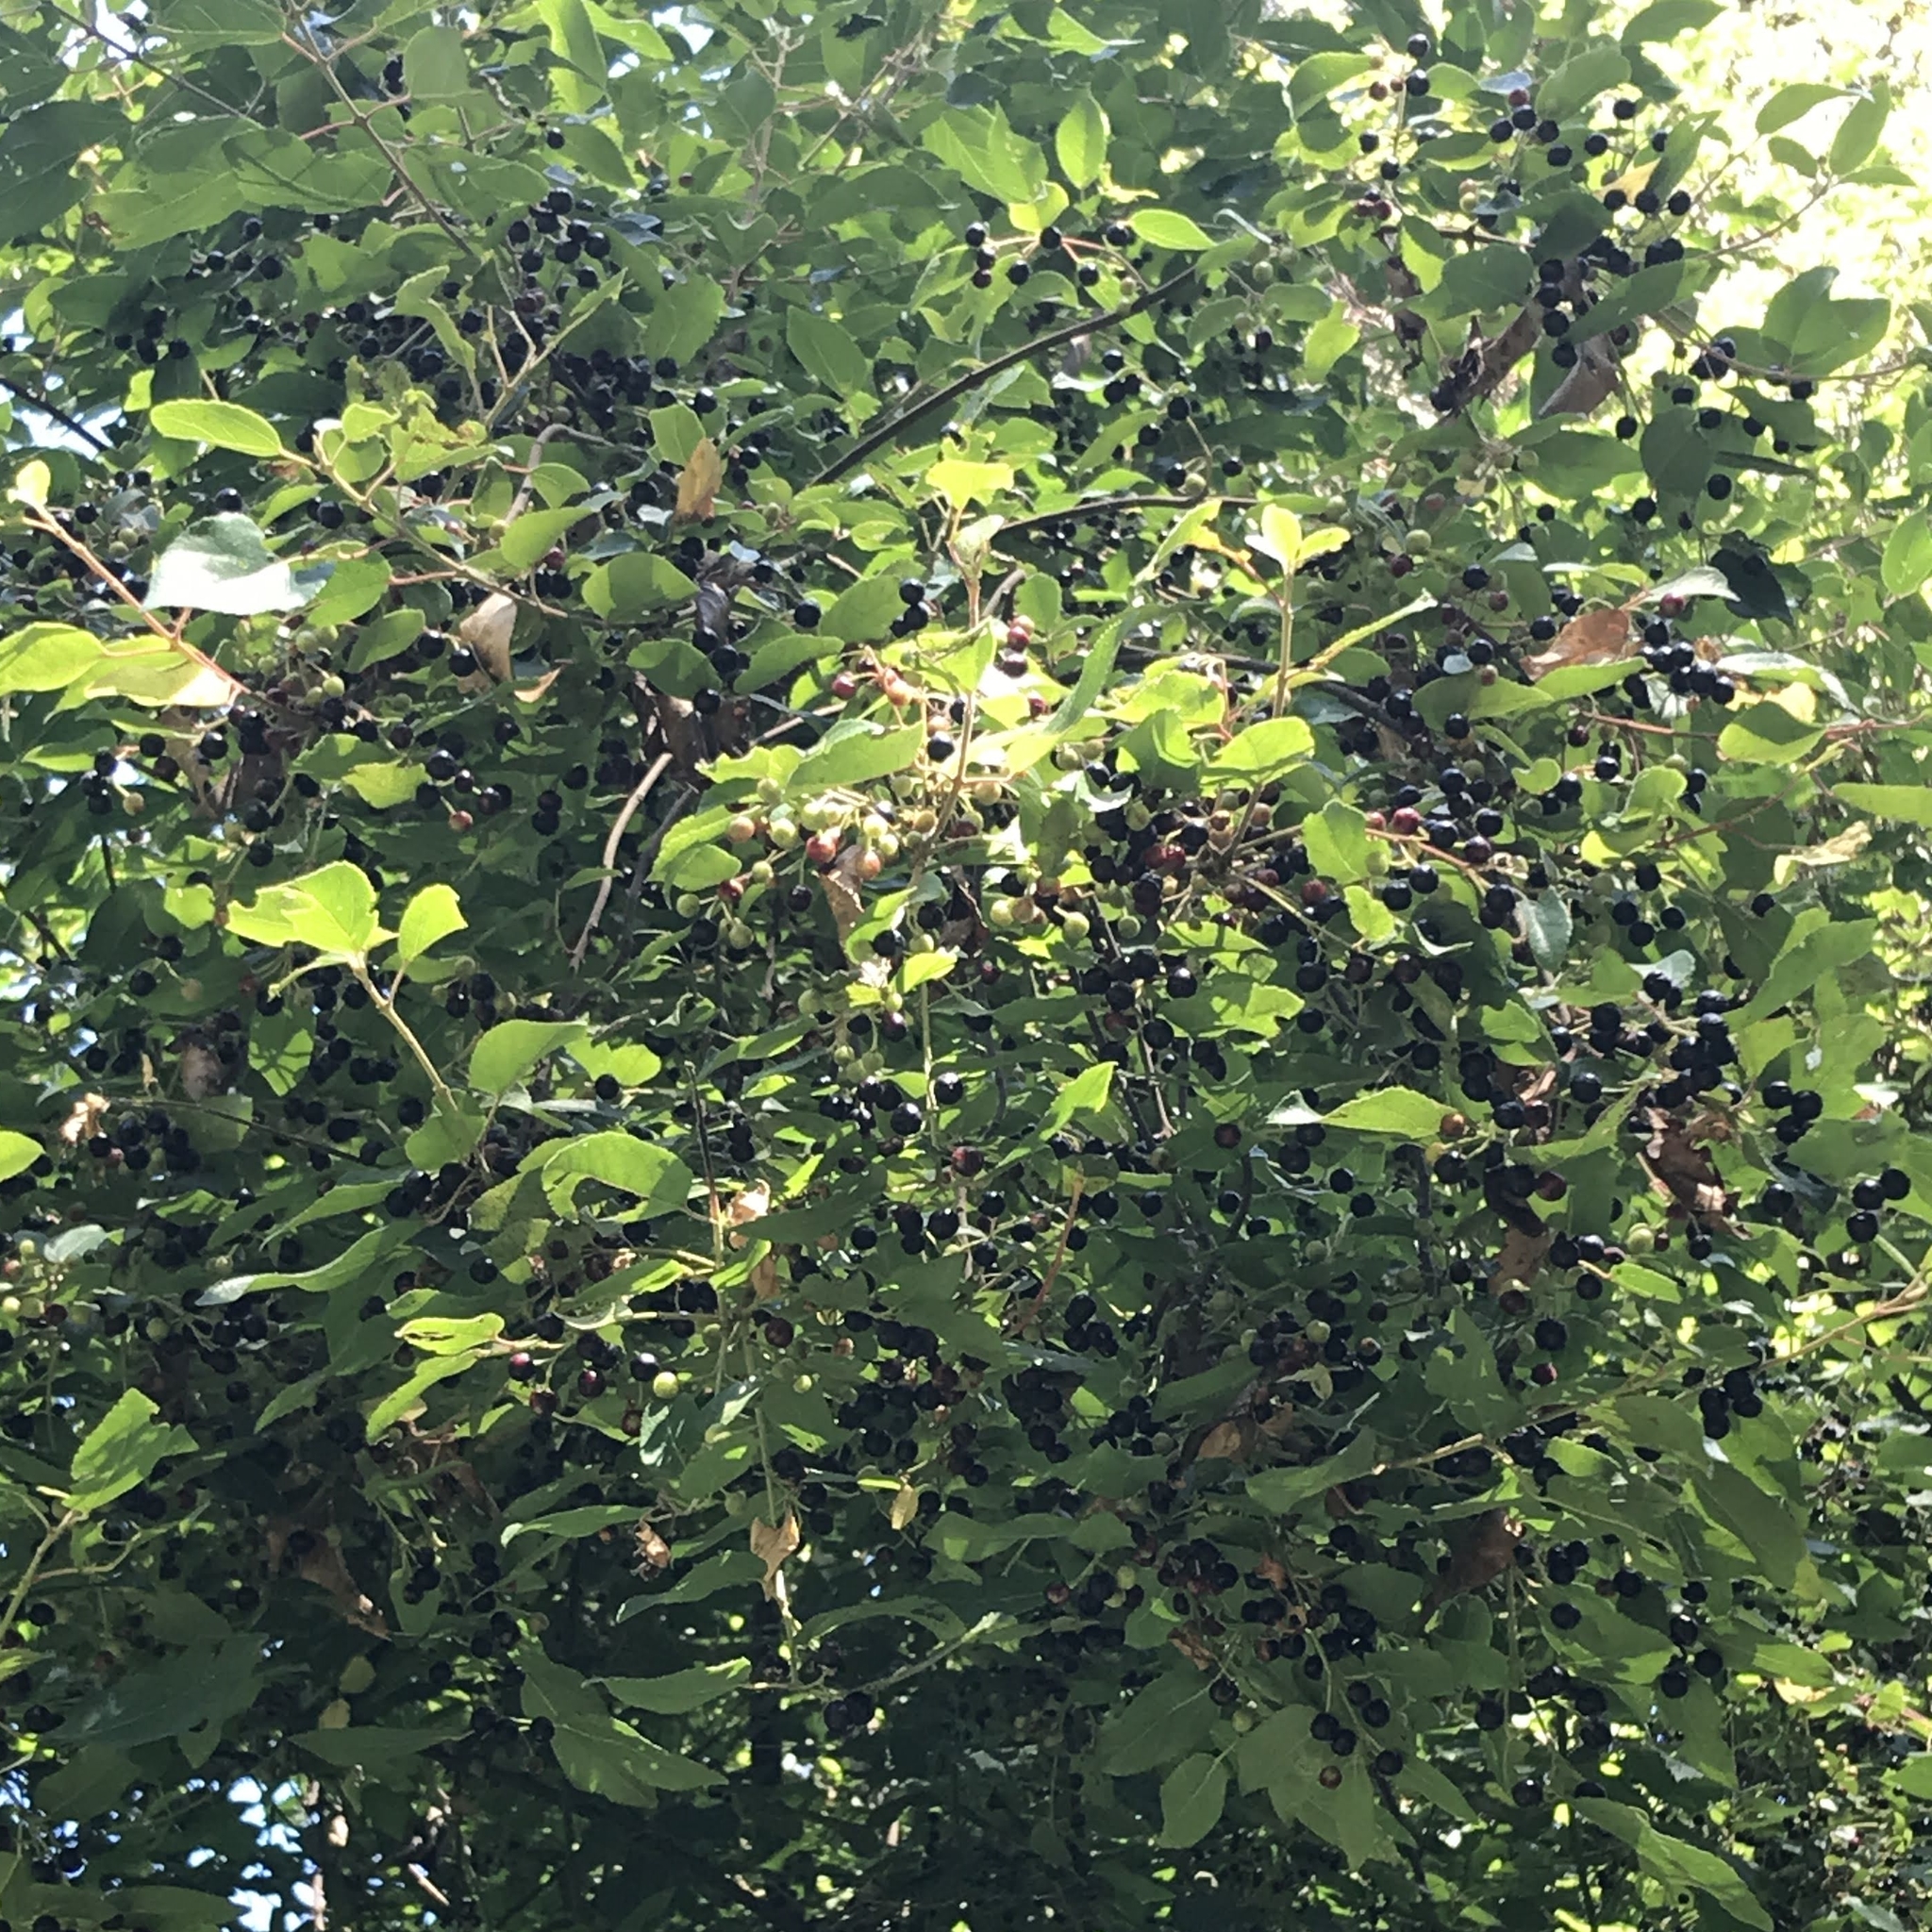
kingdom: Plantae
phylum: Tracheophyta
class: Magnoliopsida
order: Oxalidales
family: Elaeocarpaceae
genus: Aristotelia
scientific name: Aristotelia chilensis
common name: Maquei
